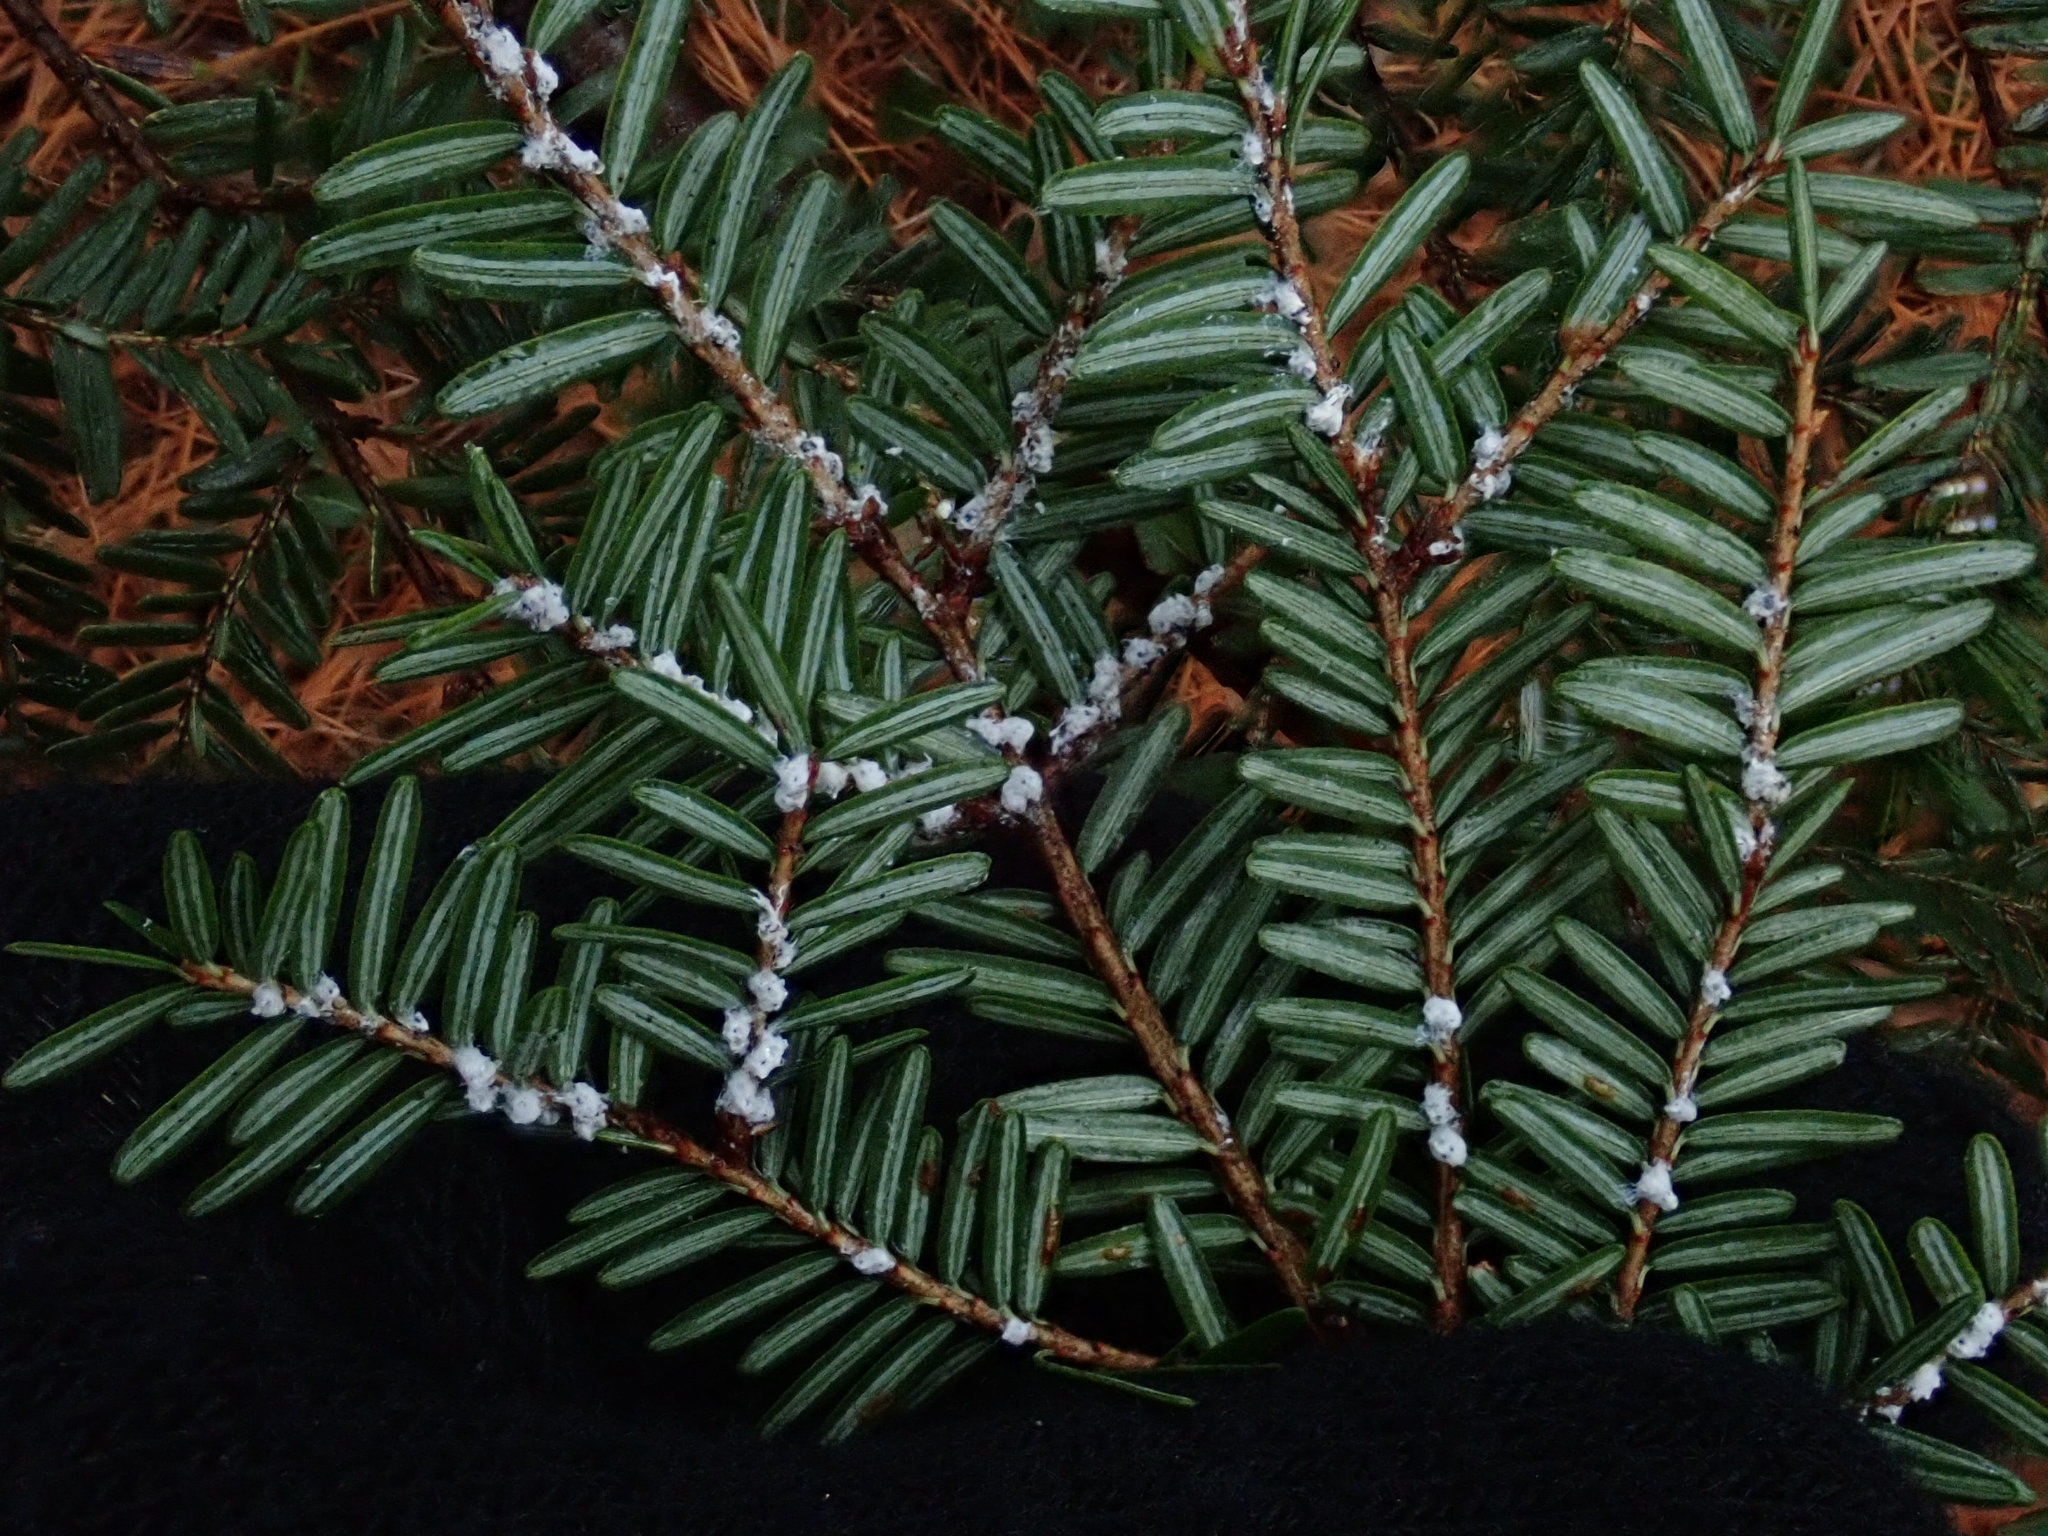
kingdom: Animalia
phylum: Arthropoda
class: Insecta
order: Hemiptera
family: Adelgidae
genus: Adelges
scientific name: Adelges tsugae
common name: Hemlock woolly adelgid
